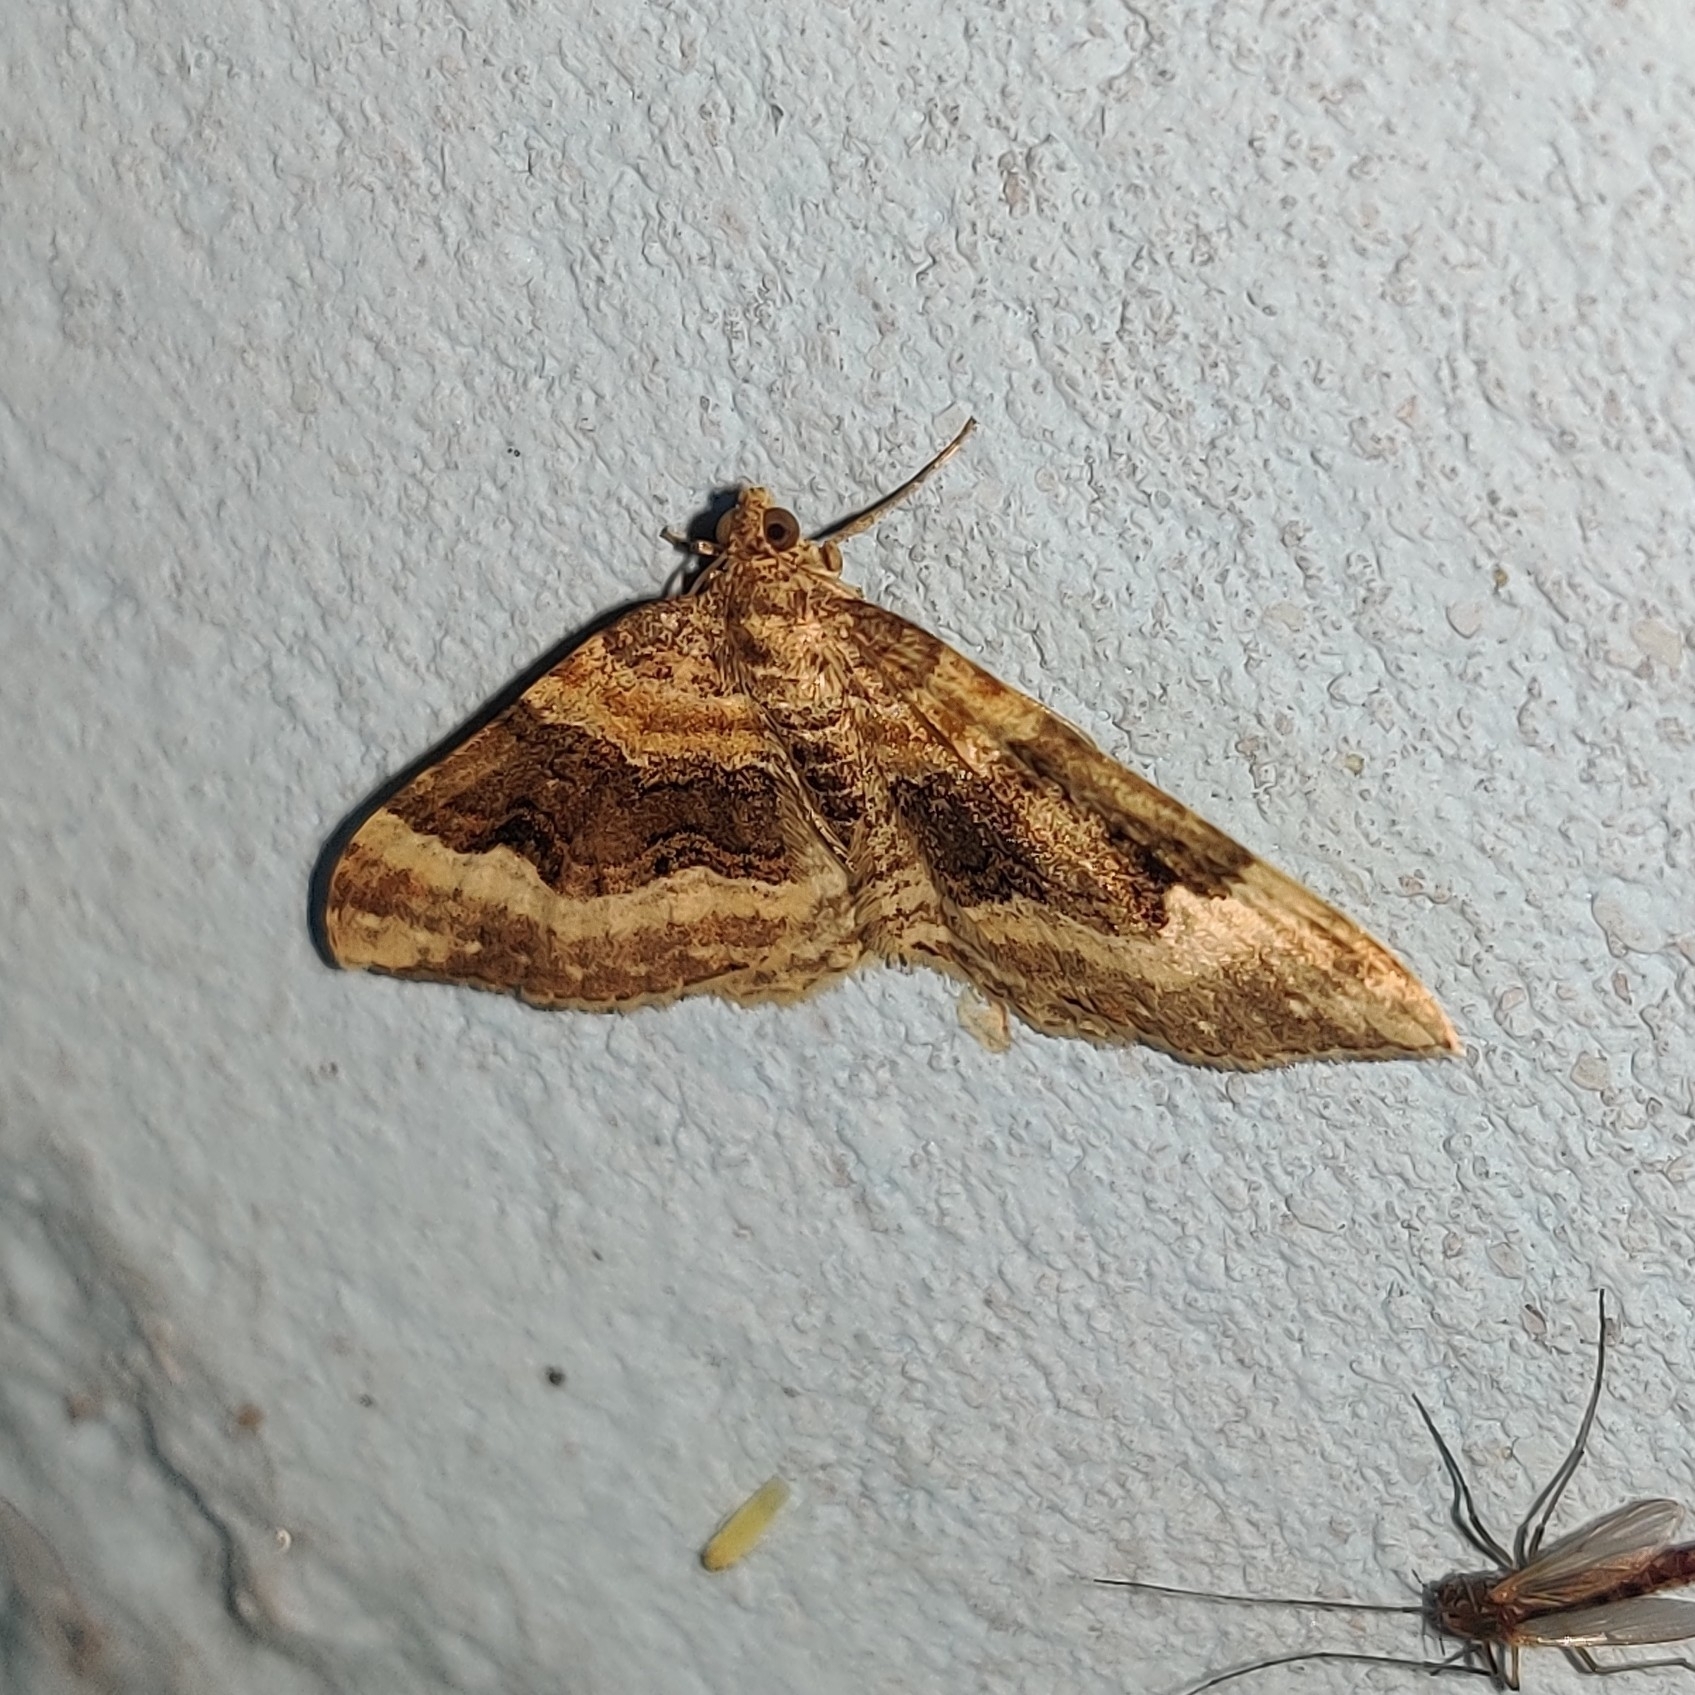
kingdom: Animalia
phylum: Arthropoda
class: Insecta
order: Lepidoptera
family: Geometridae
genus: Euphyia
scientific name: Euphyia subangulata
